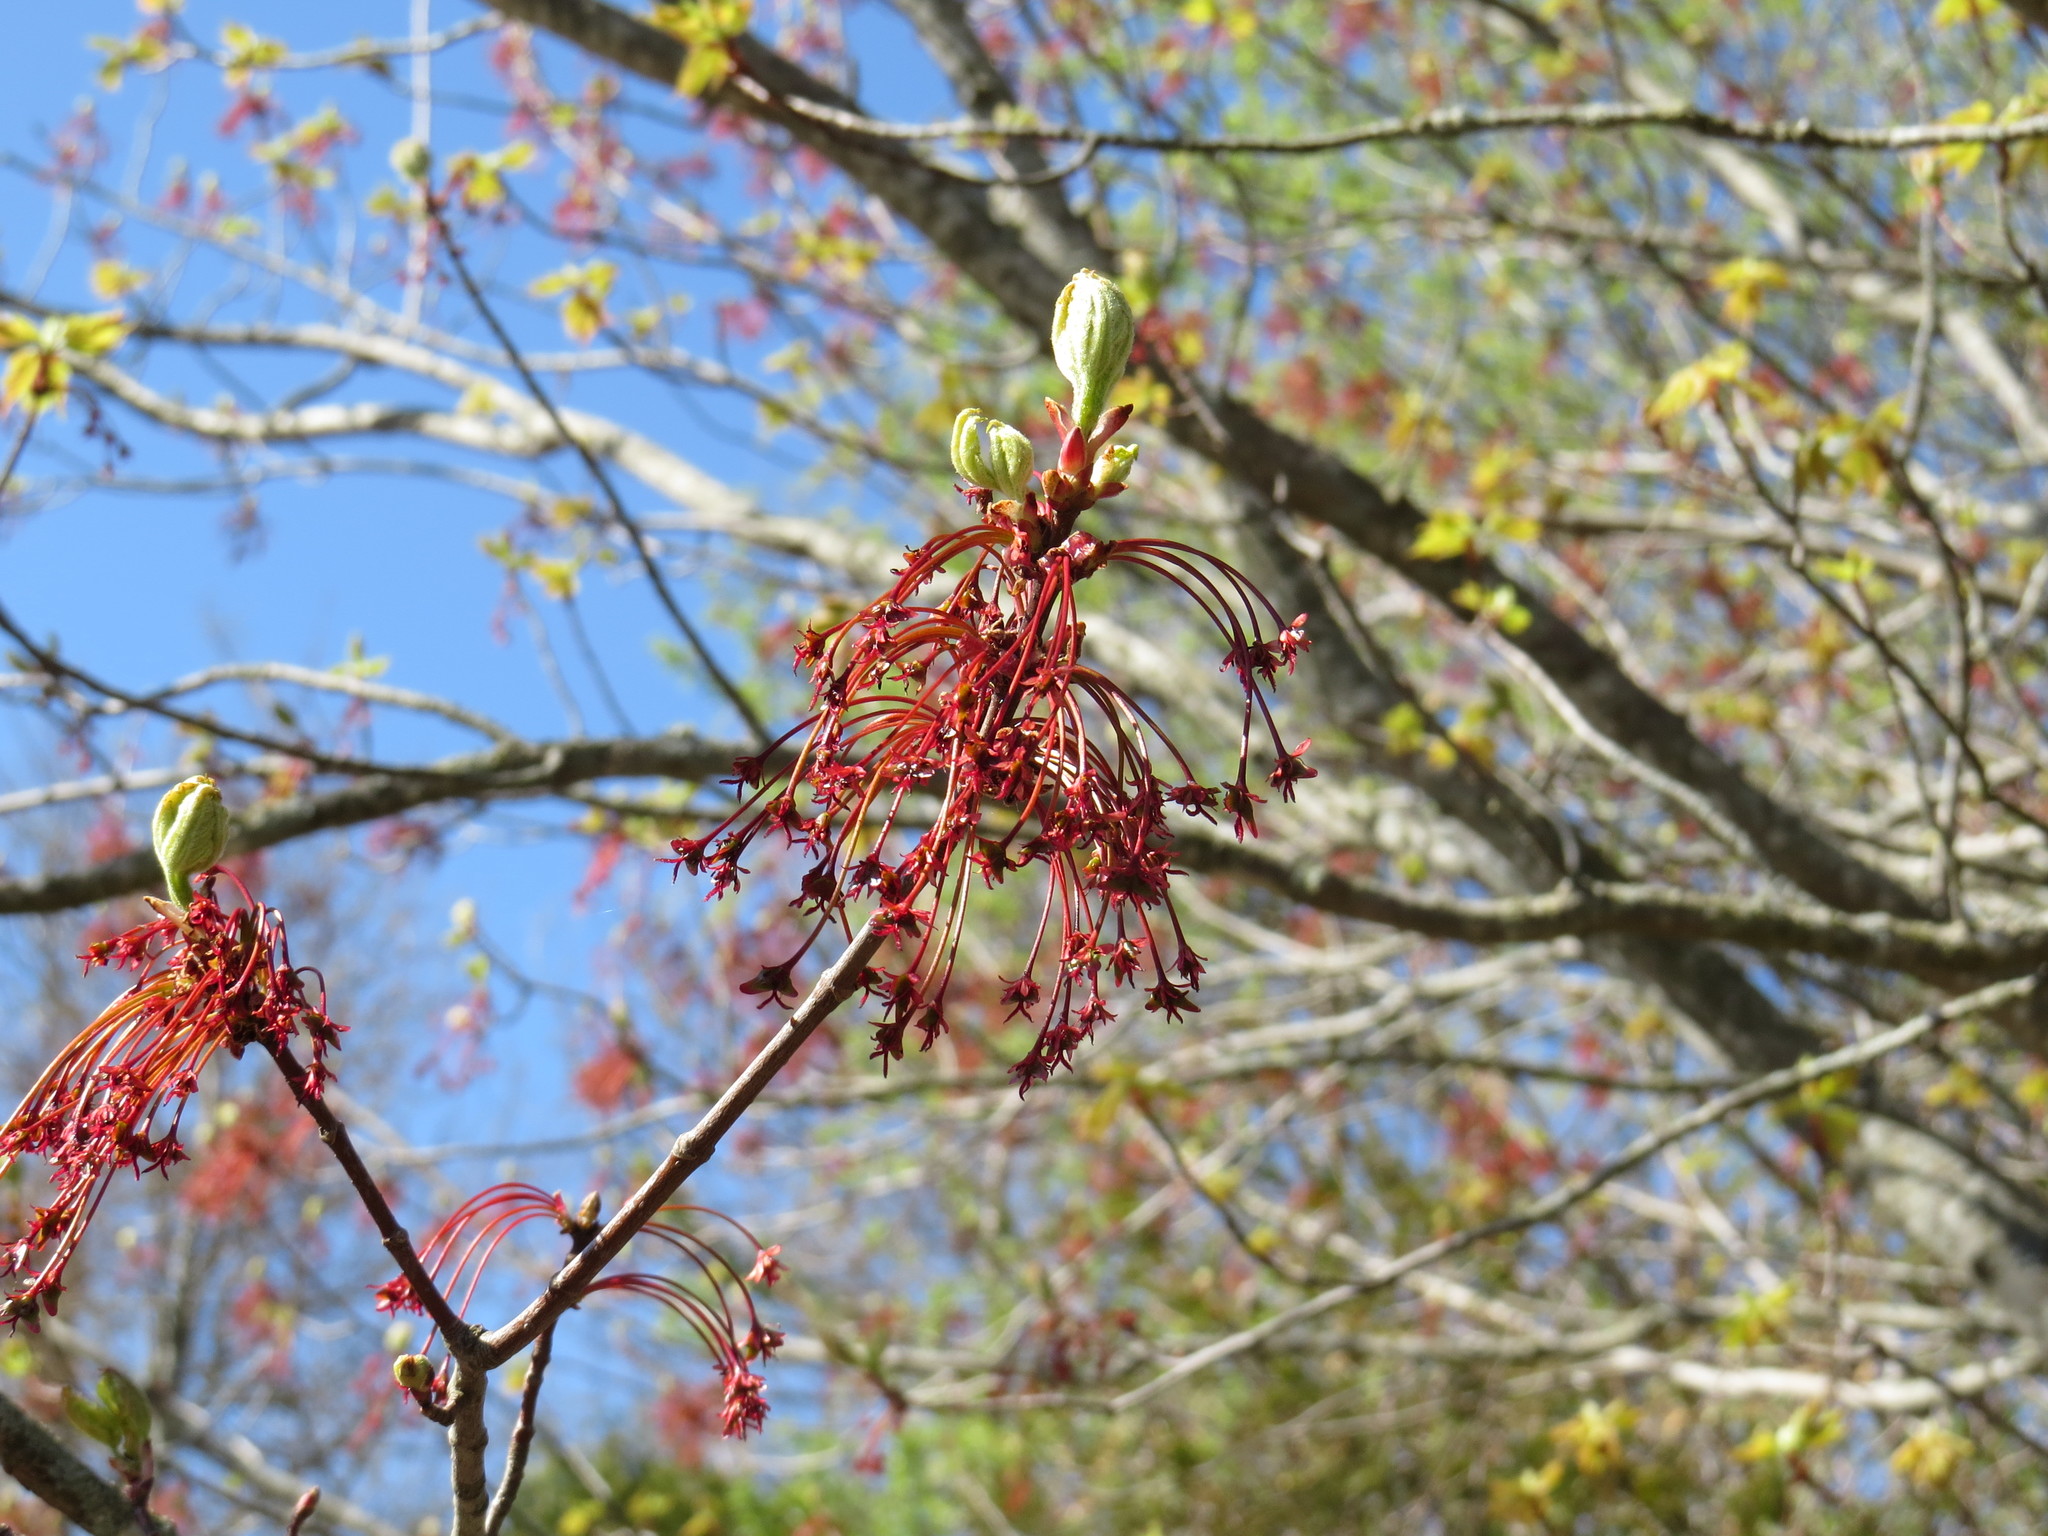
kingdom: Plantae
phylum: Tracheophyta
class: Magnoliopsida
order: Sapindales
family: Sapindaceae
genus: Acer
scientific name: Acer rubrum
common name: Red maple
